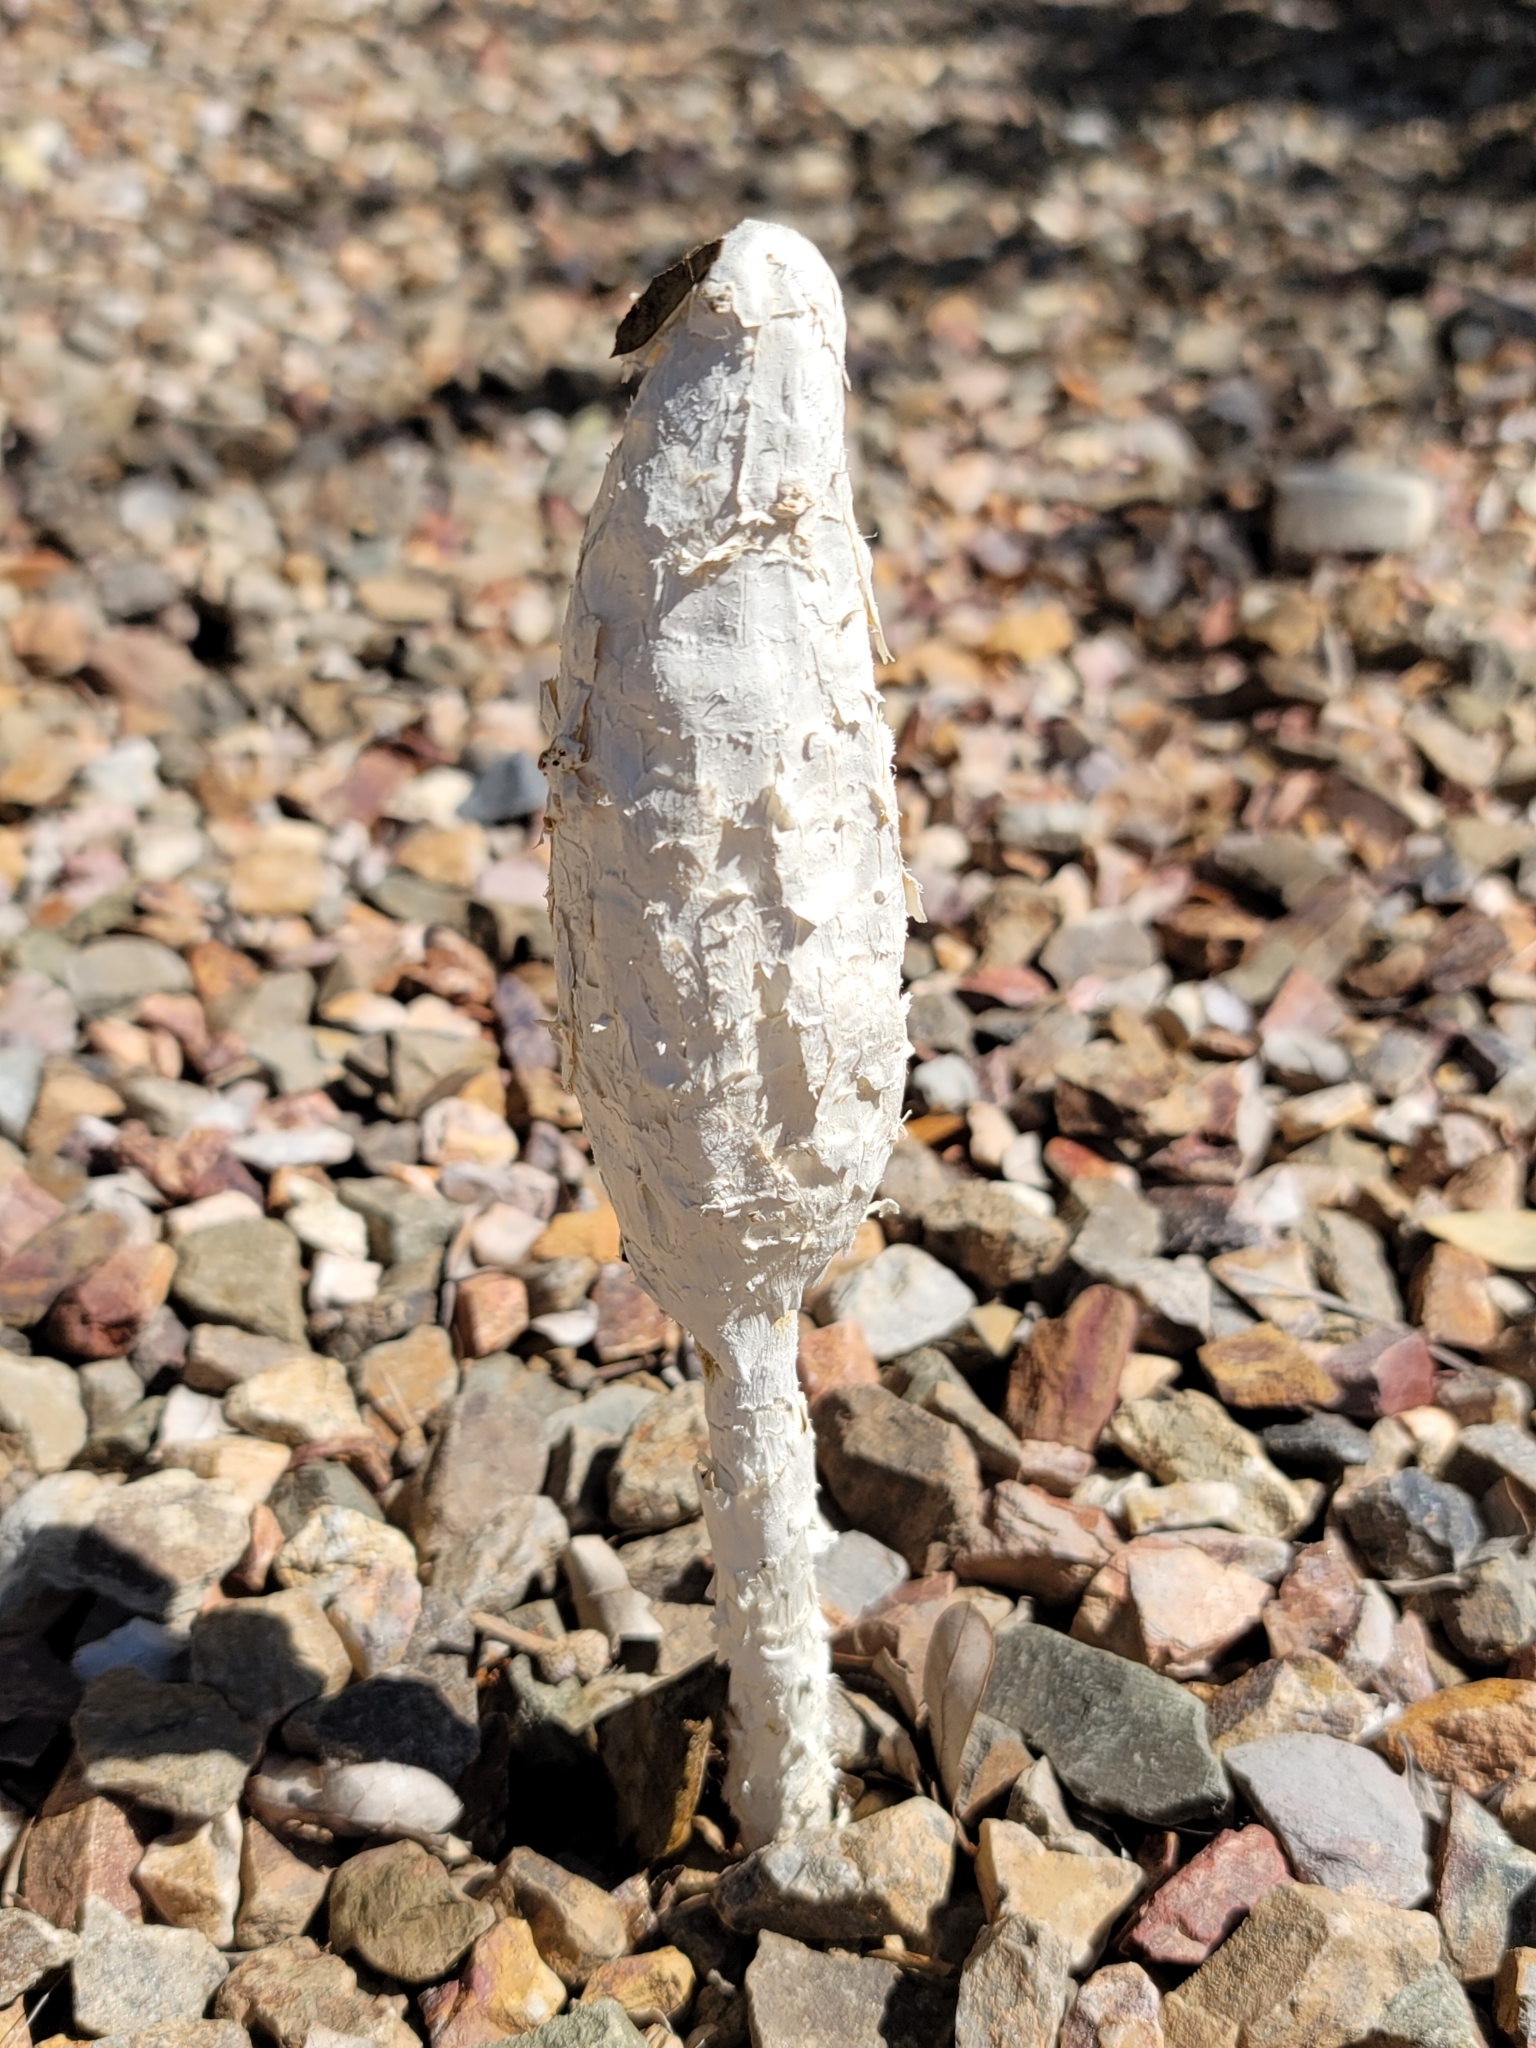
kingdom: Fungi
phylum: Basidiomycota
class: Agaricomycetes
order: Agaricales
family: Agaricaceae
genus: Podaxis
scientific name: Podaxis pistillaris
